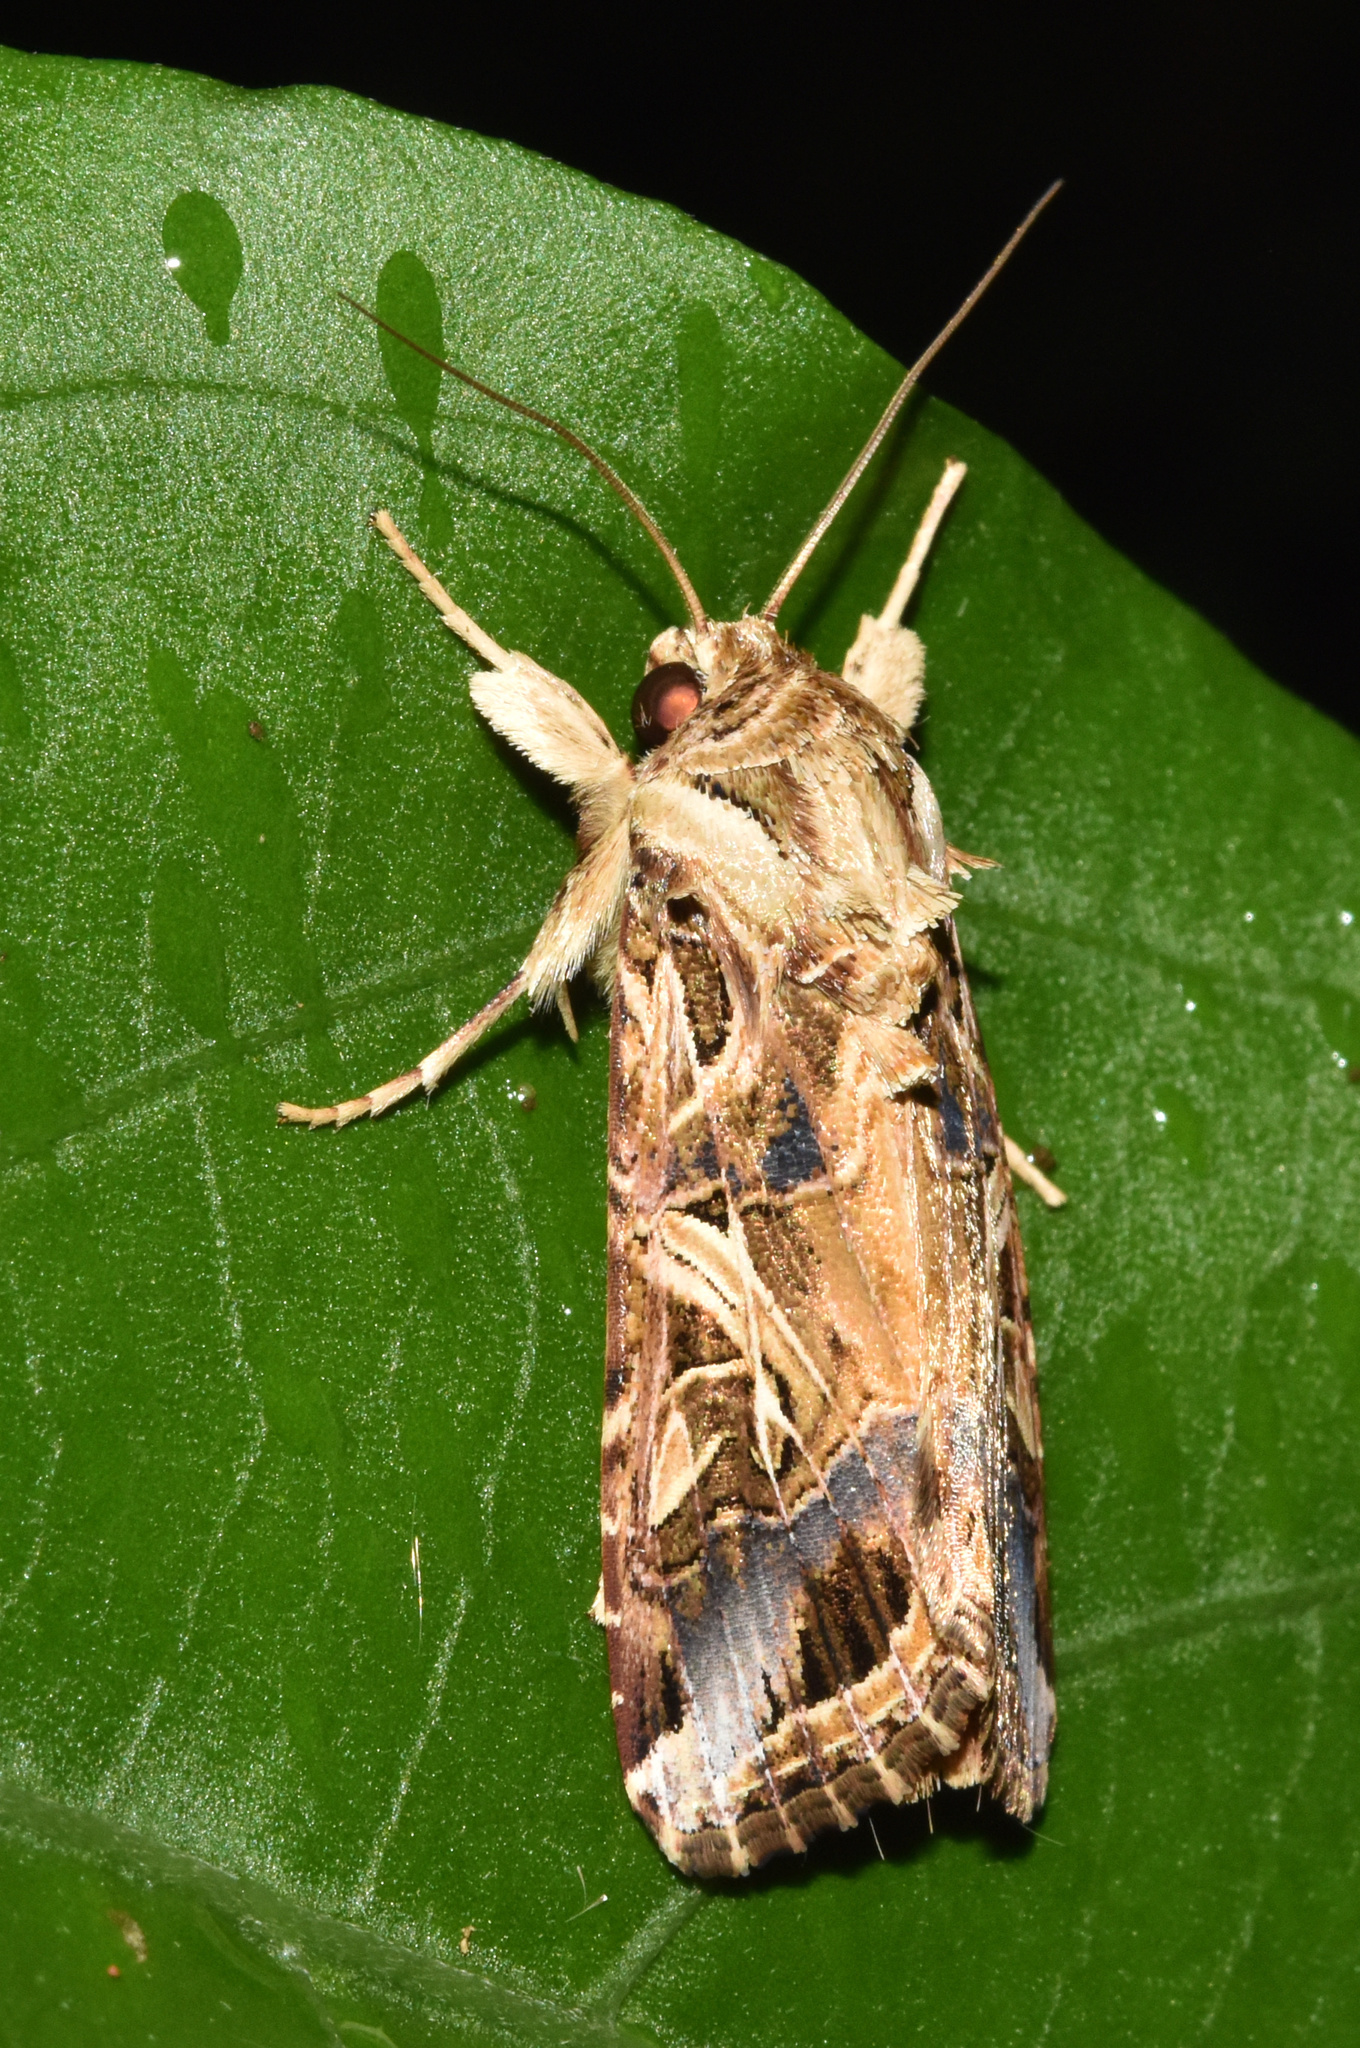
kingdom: Animalia
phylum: Arthropoda
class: Insecta
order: Lepidoptera
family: Noctuidae
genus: Spodoptera
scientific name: Spodoptera littoralis
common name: Egyptian cotton leafworm
